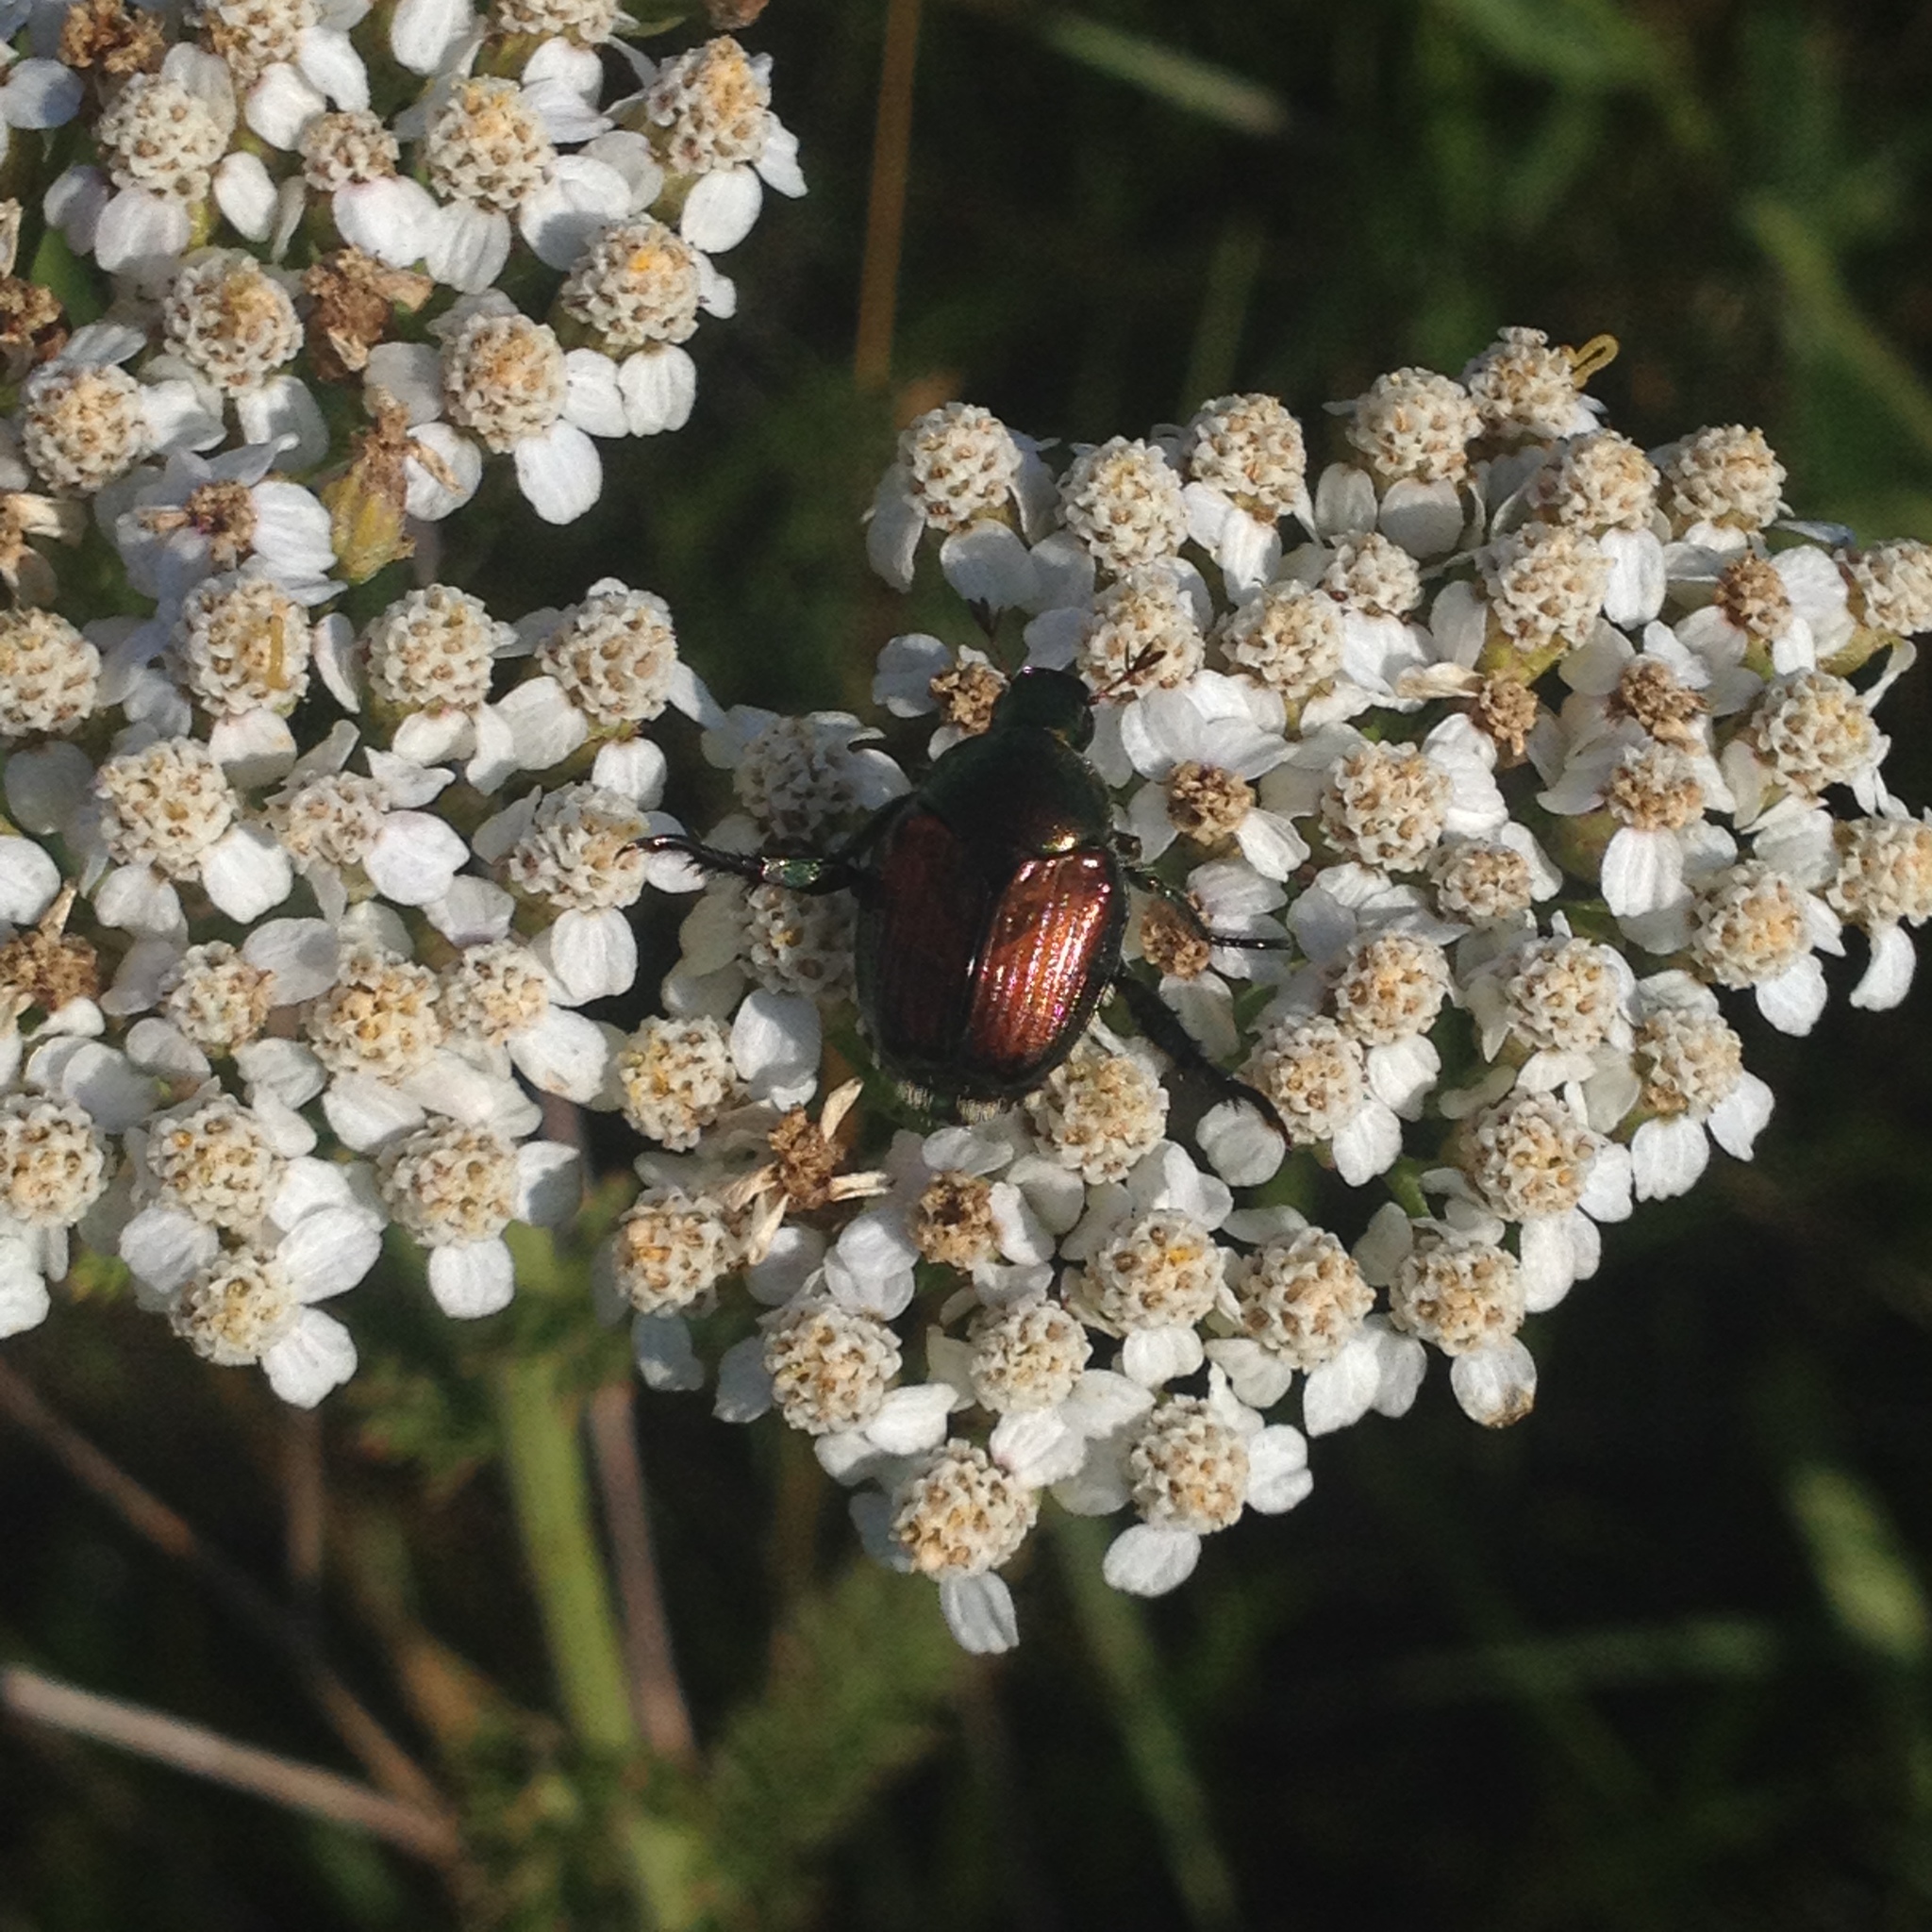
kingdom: Animalia
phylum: Arthropoda
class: Insecta
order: Coleoptera
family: Scarabaeidae
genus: Popillia
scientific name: Popillia japonica
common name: Japanese beetle
